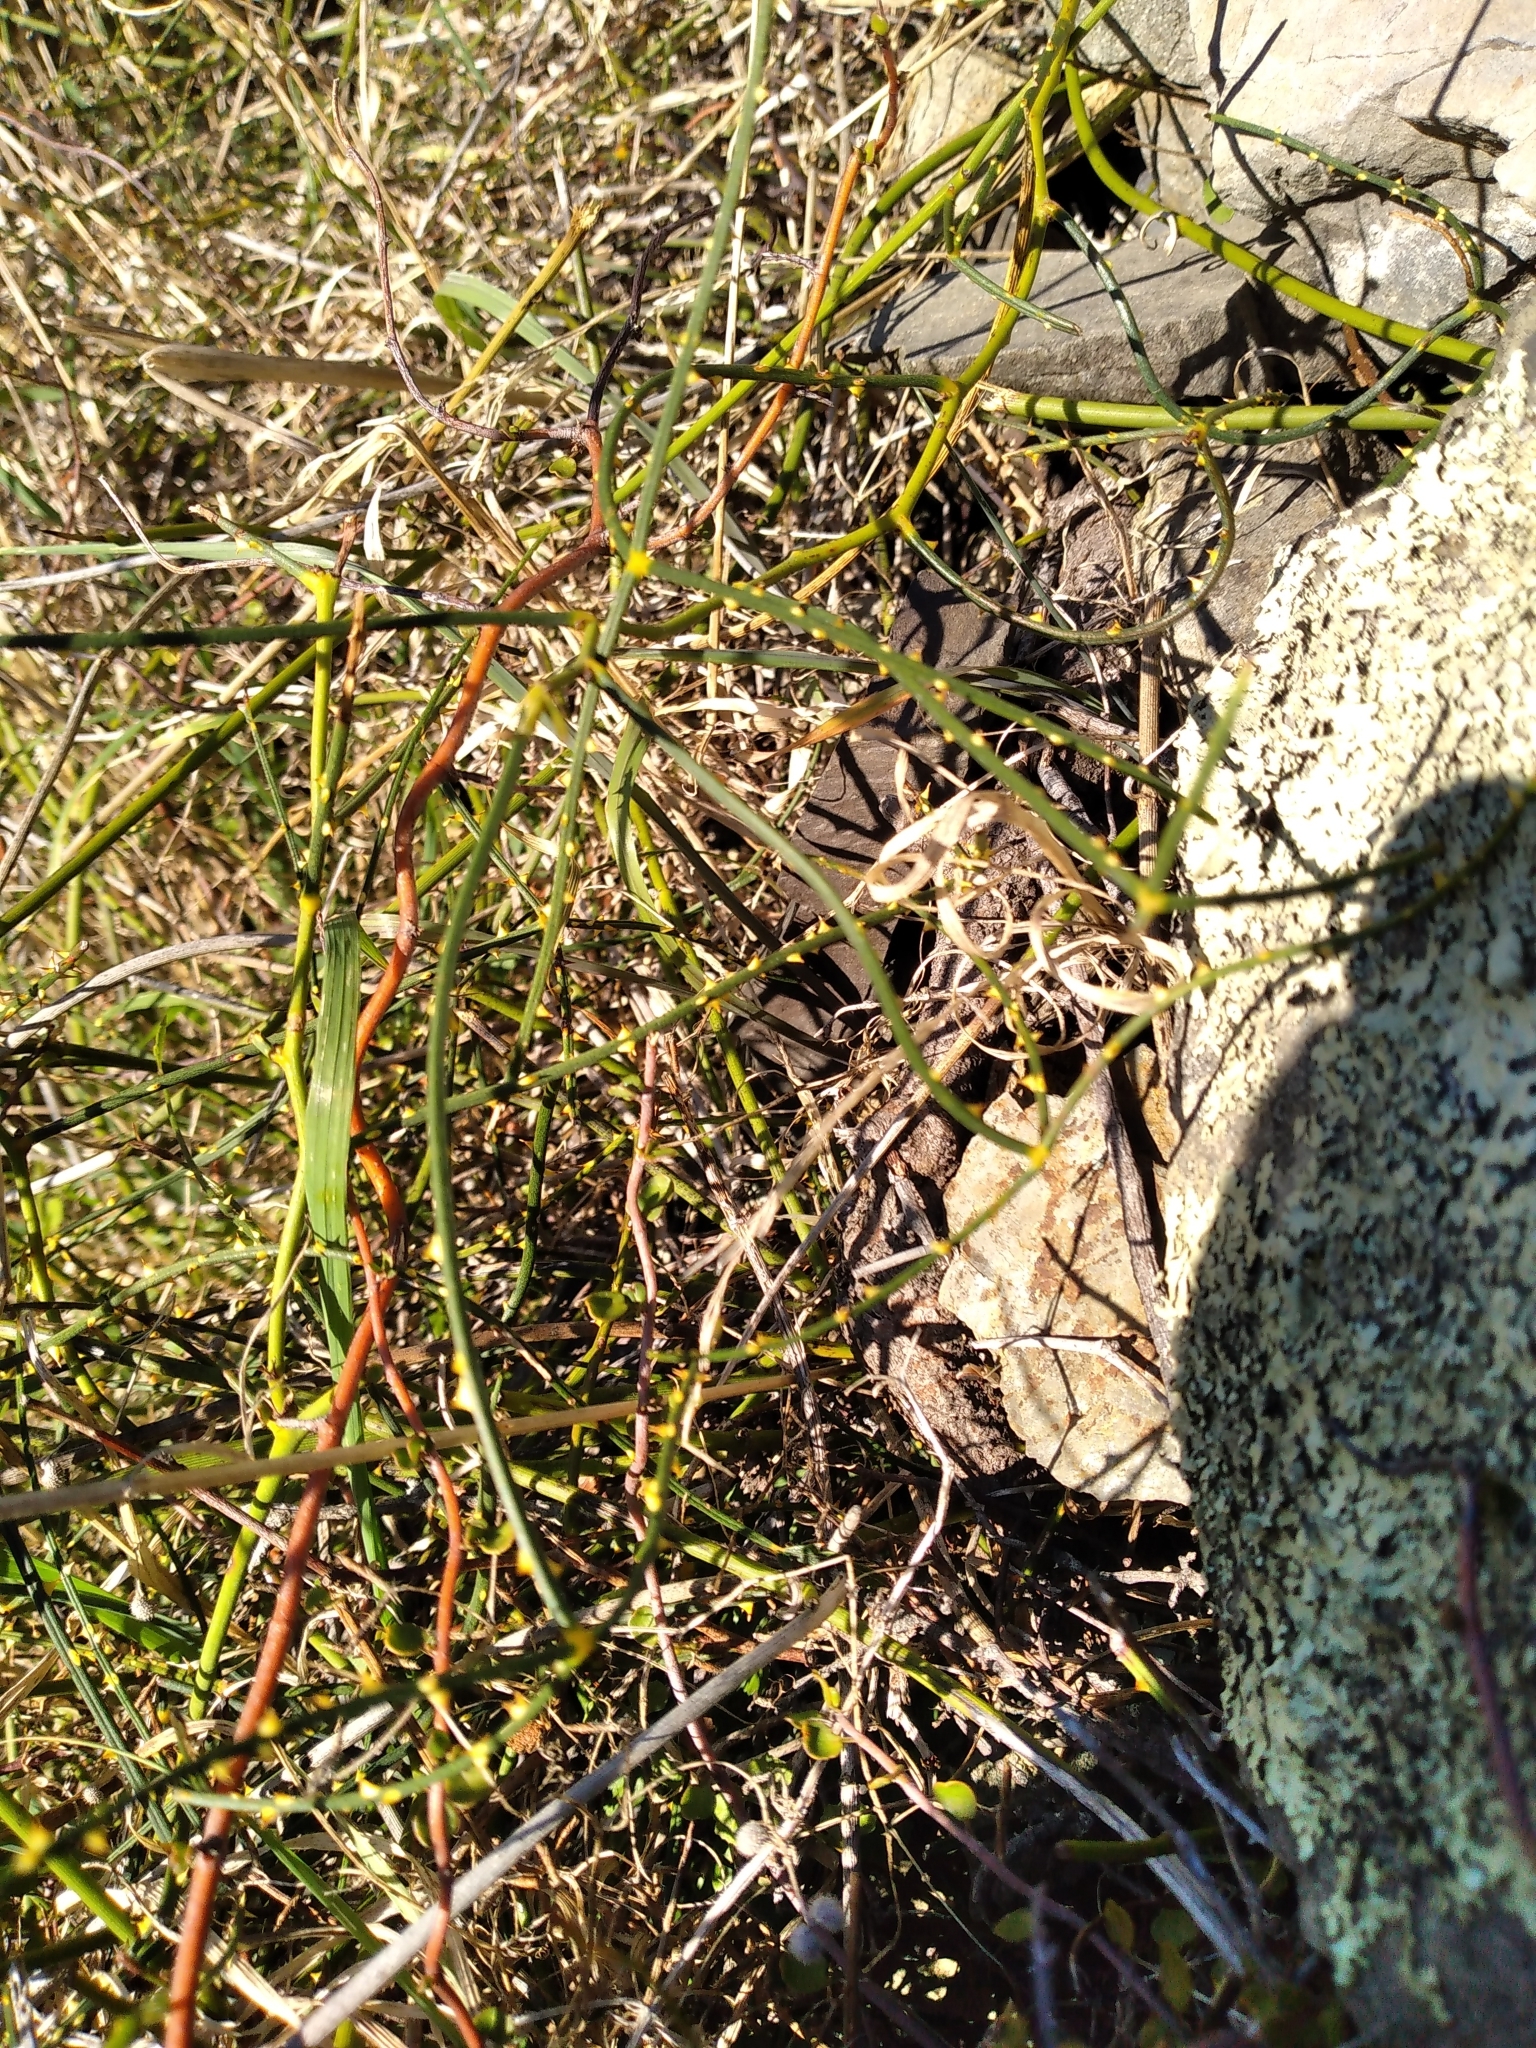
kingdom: Plantae
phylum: Tracheophyta
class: Magnoliopsida
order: Rosales
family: Rosaceae
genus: Rubus
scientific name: Rubus squarrosus
